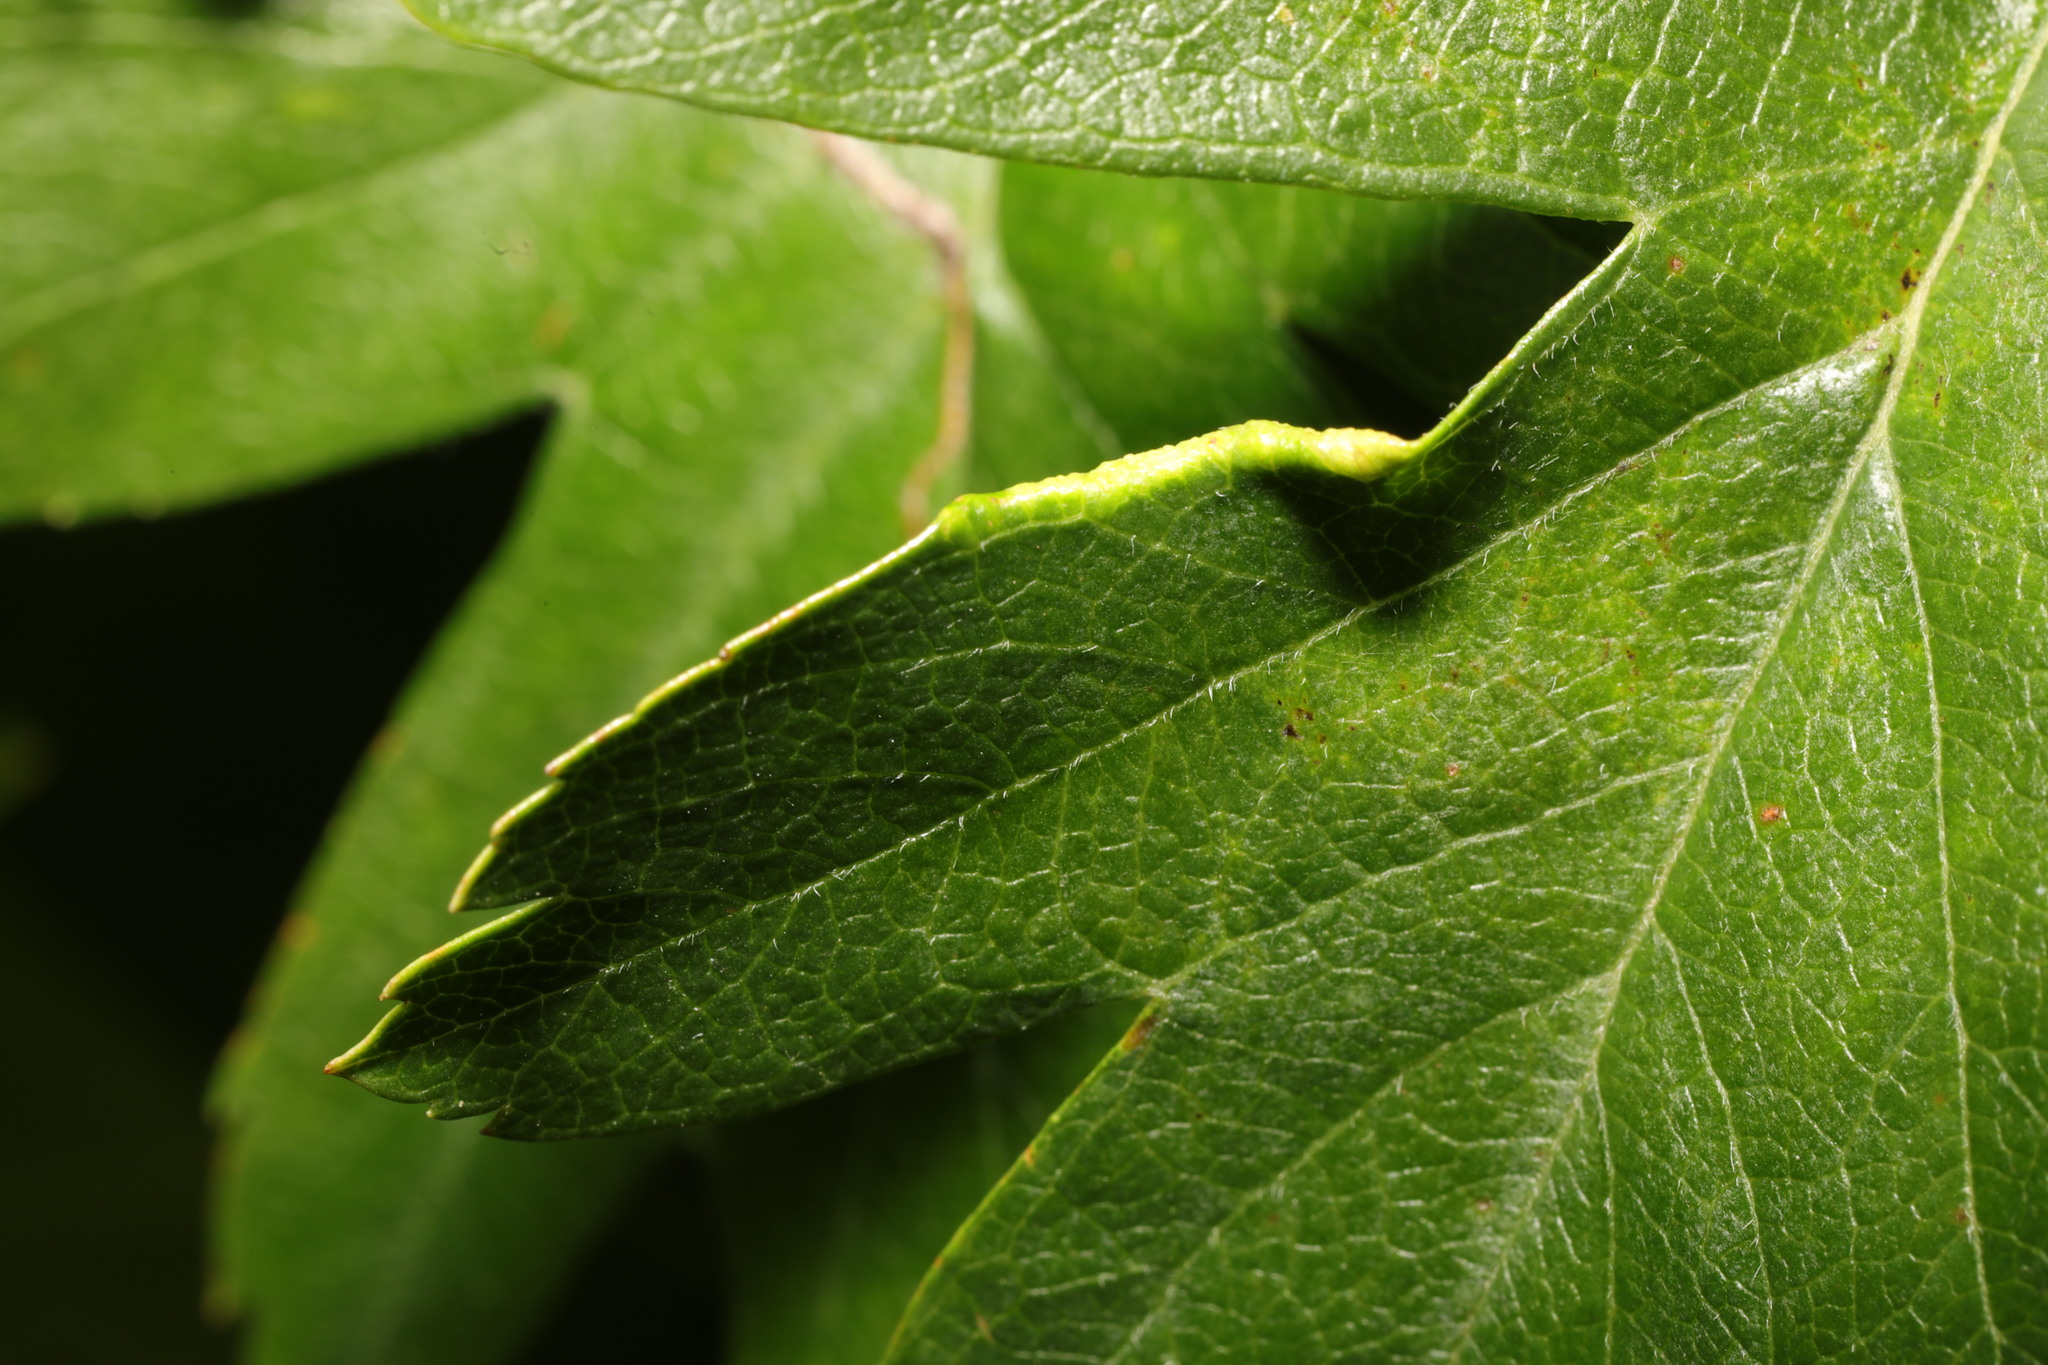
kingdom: Animalia
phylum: Arthropoda
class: Arachnida
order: Trombidiformes
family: Eriophyidae
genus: Phyllocoptes
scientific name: Phyllocoptes goniothorax
